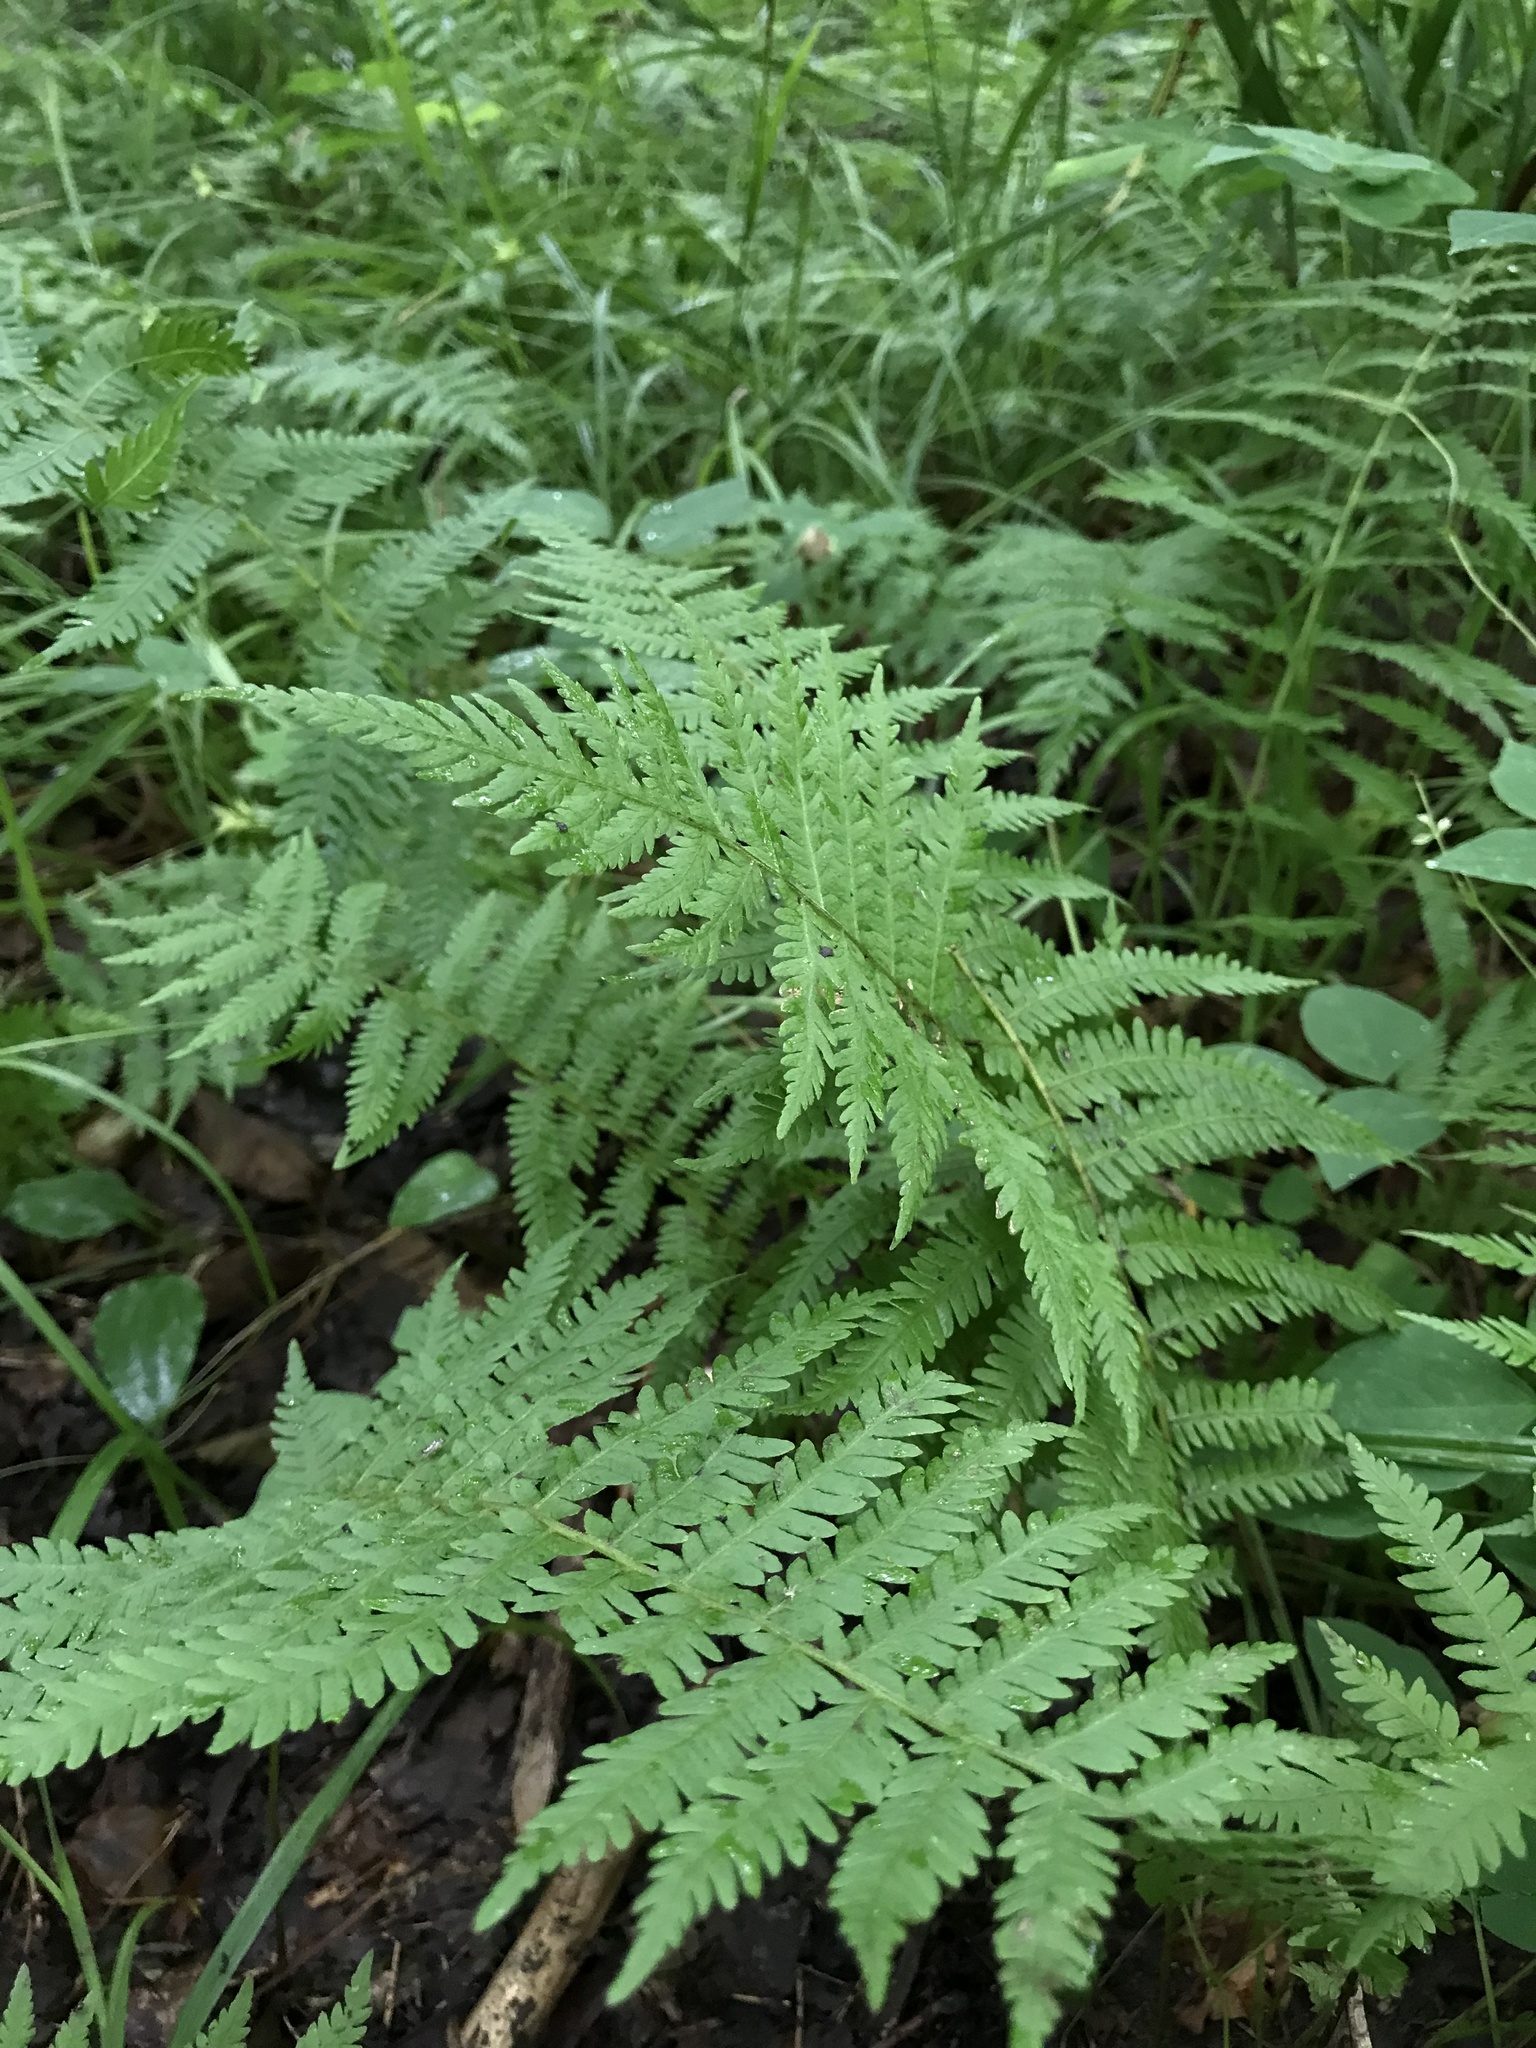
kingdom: Plantae
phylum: Tracheophyta
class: Polypodiopsida
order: Polypodiales
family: Thelypteridaceae
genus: Amauropelta
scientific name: Amauropelta noveboracensis
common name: New york fern
